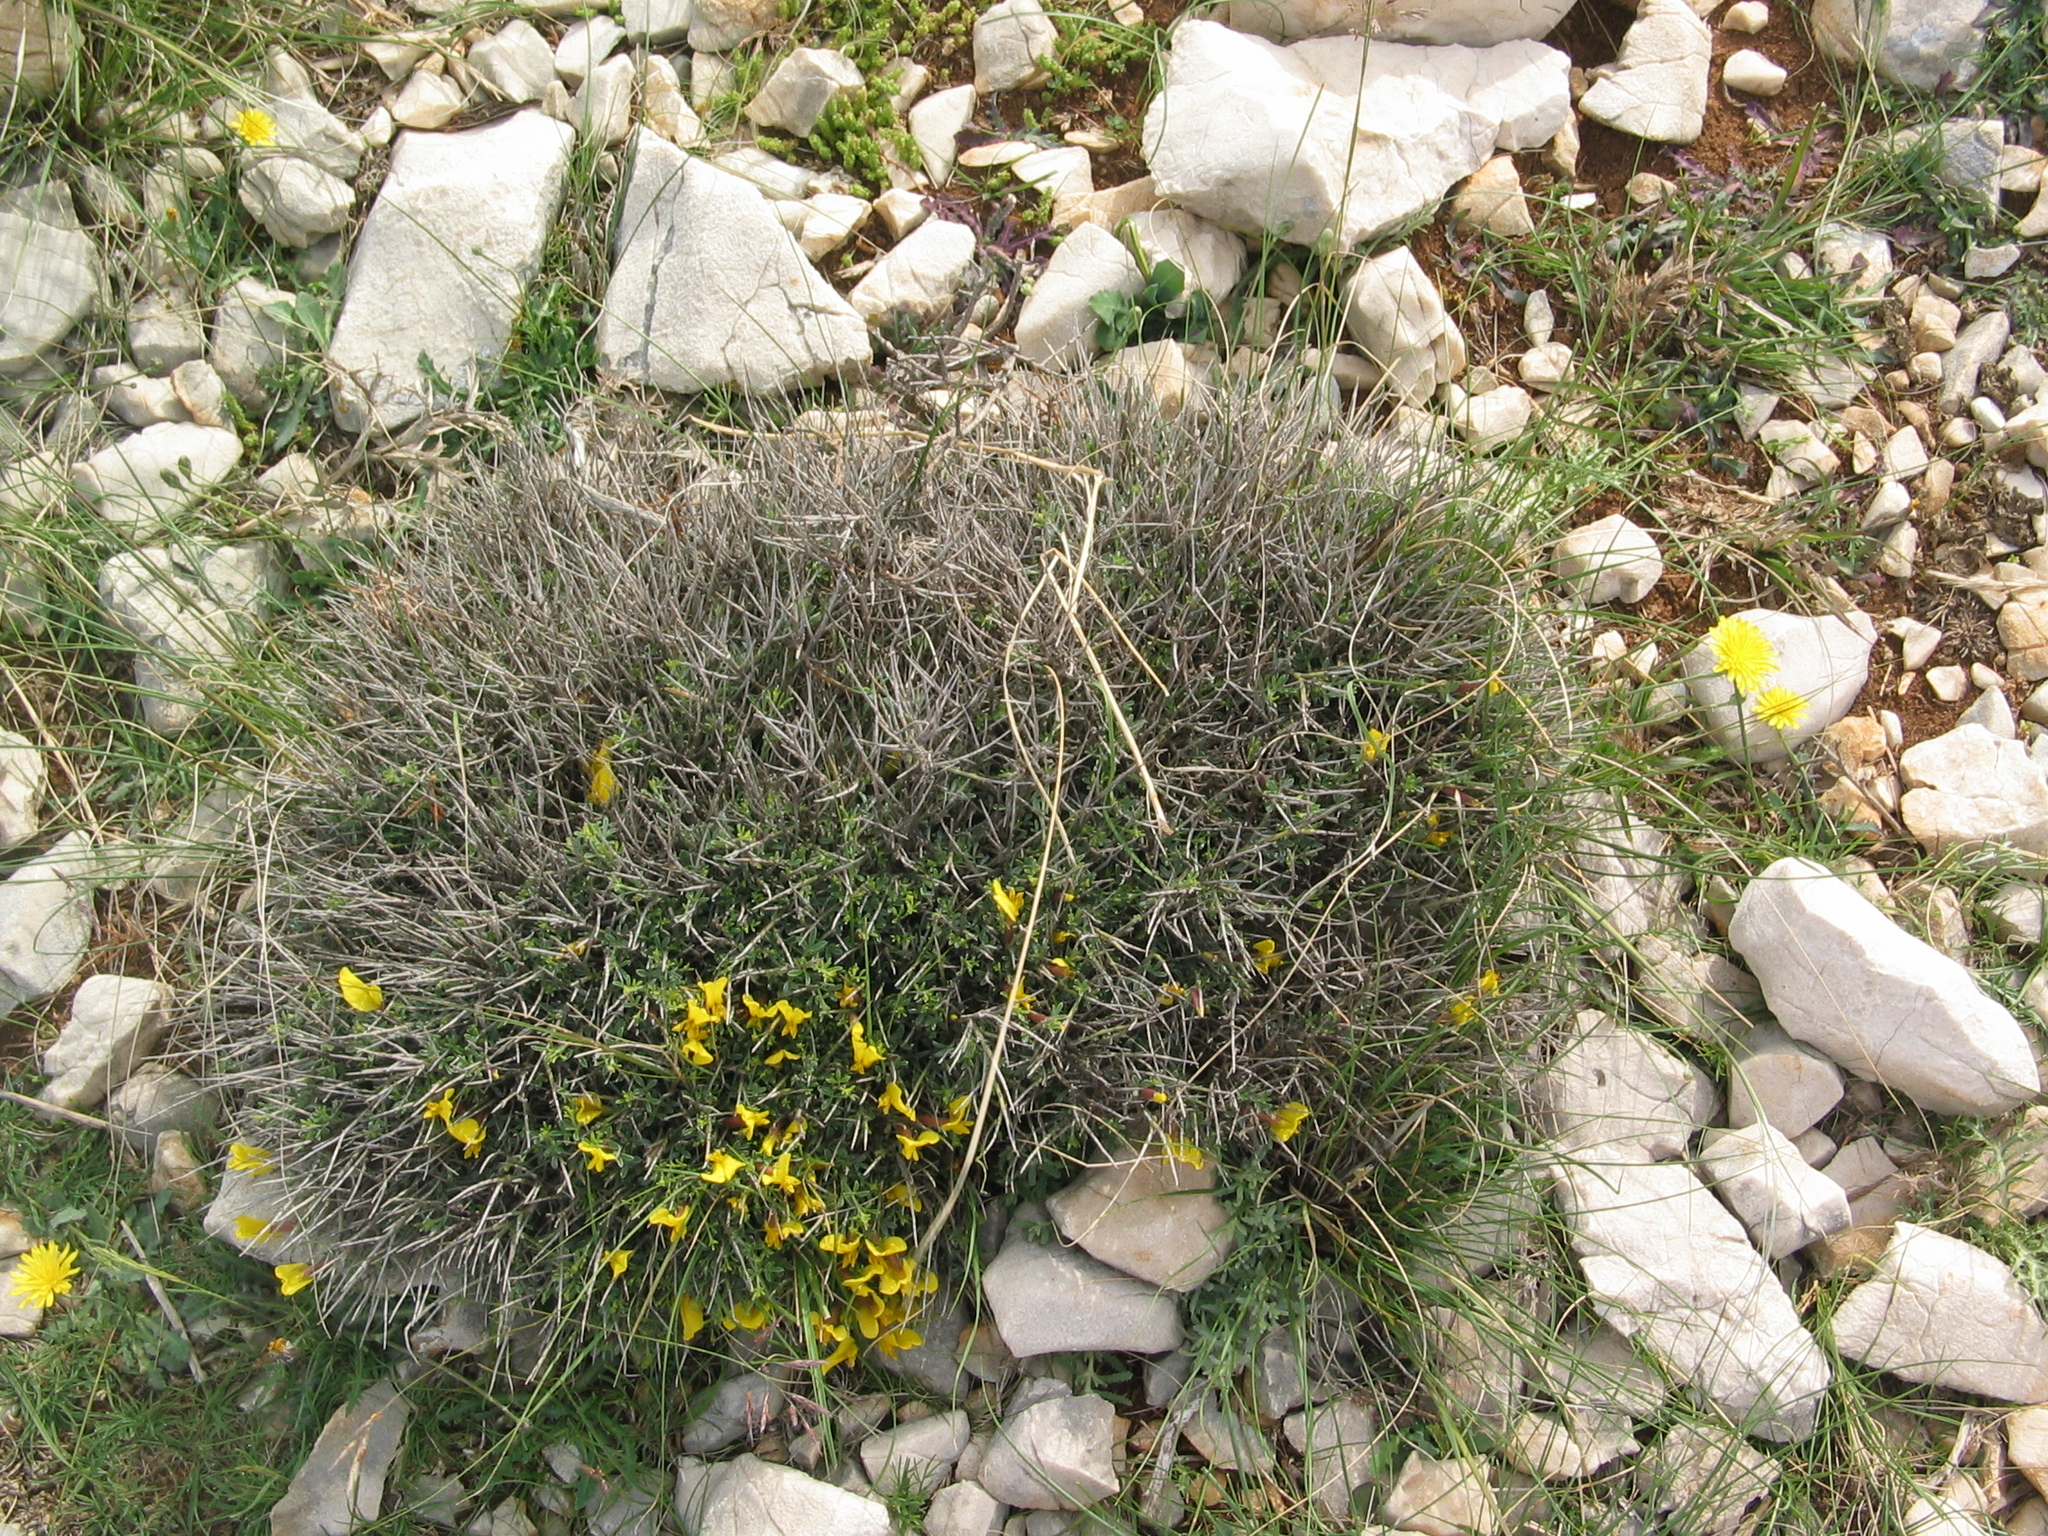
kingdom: Plantae
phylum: Tracheophyta
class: Magnoliopsida
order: Fabales
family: Fabaceae
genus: Chamaecytisus
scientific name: Chamaecytisus spinescens
